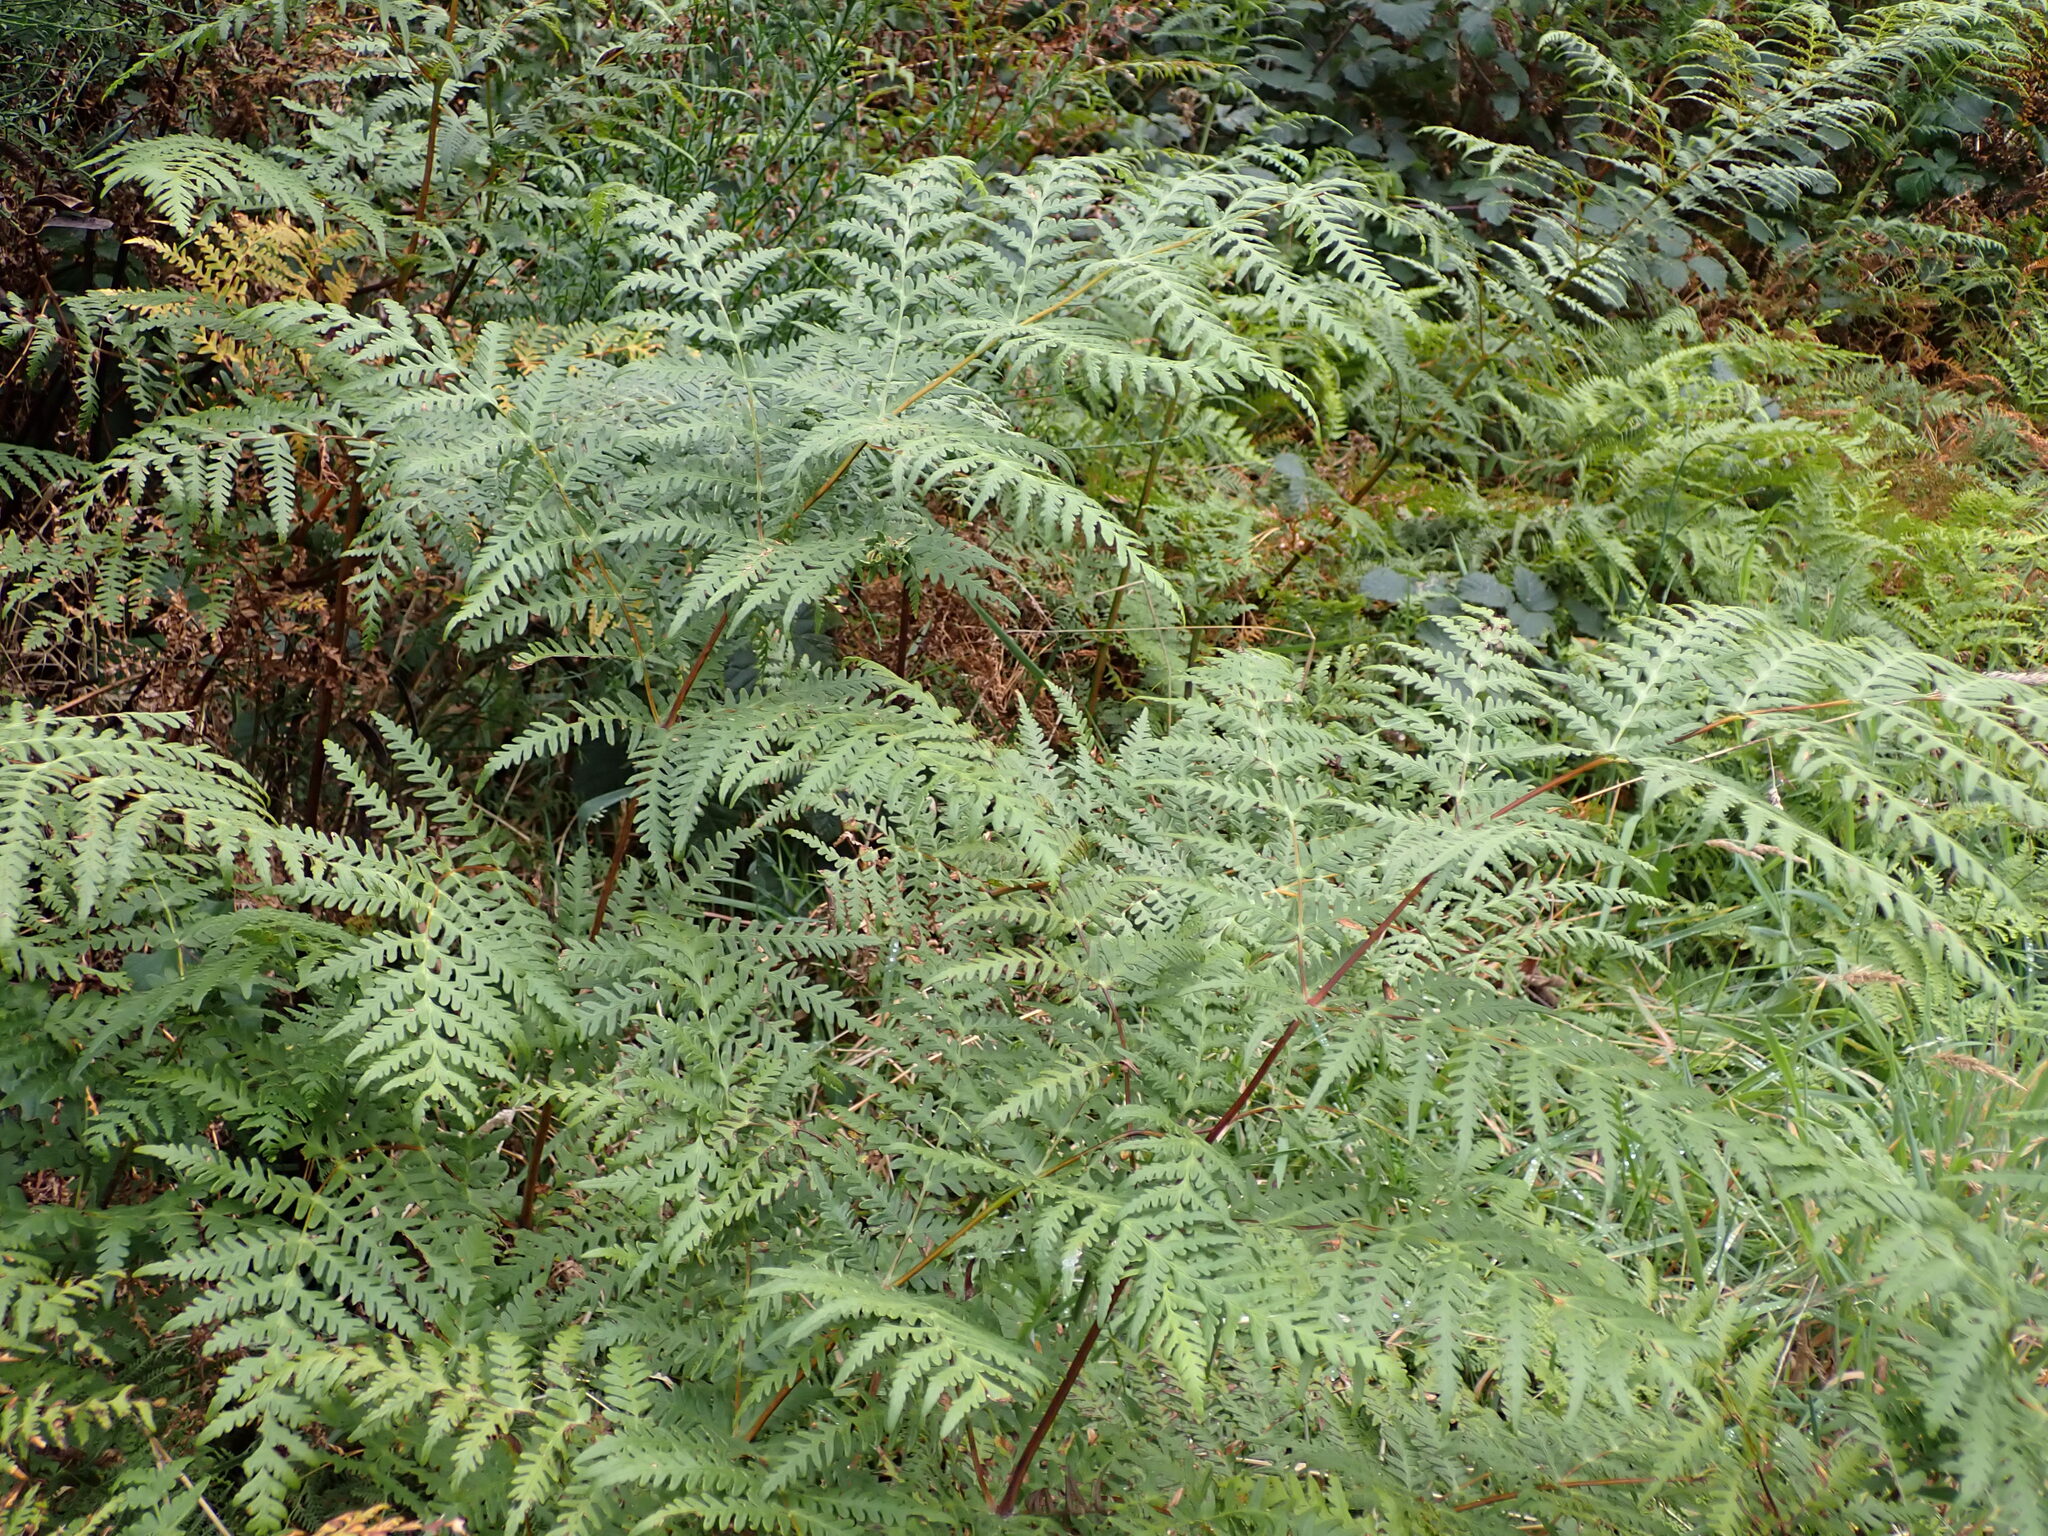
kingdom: Plantae
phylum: Tracheophyta
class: Polypodiopsida
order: Polypodiales
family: Dennstaedtiaceae
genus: Histiopteris
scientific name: Histiopteris incisa
